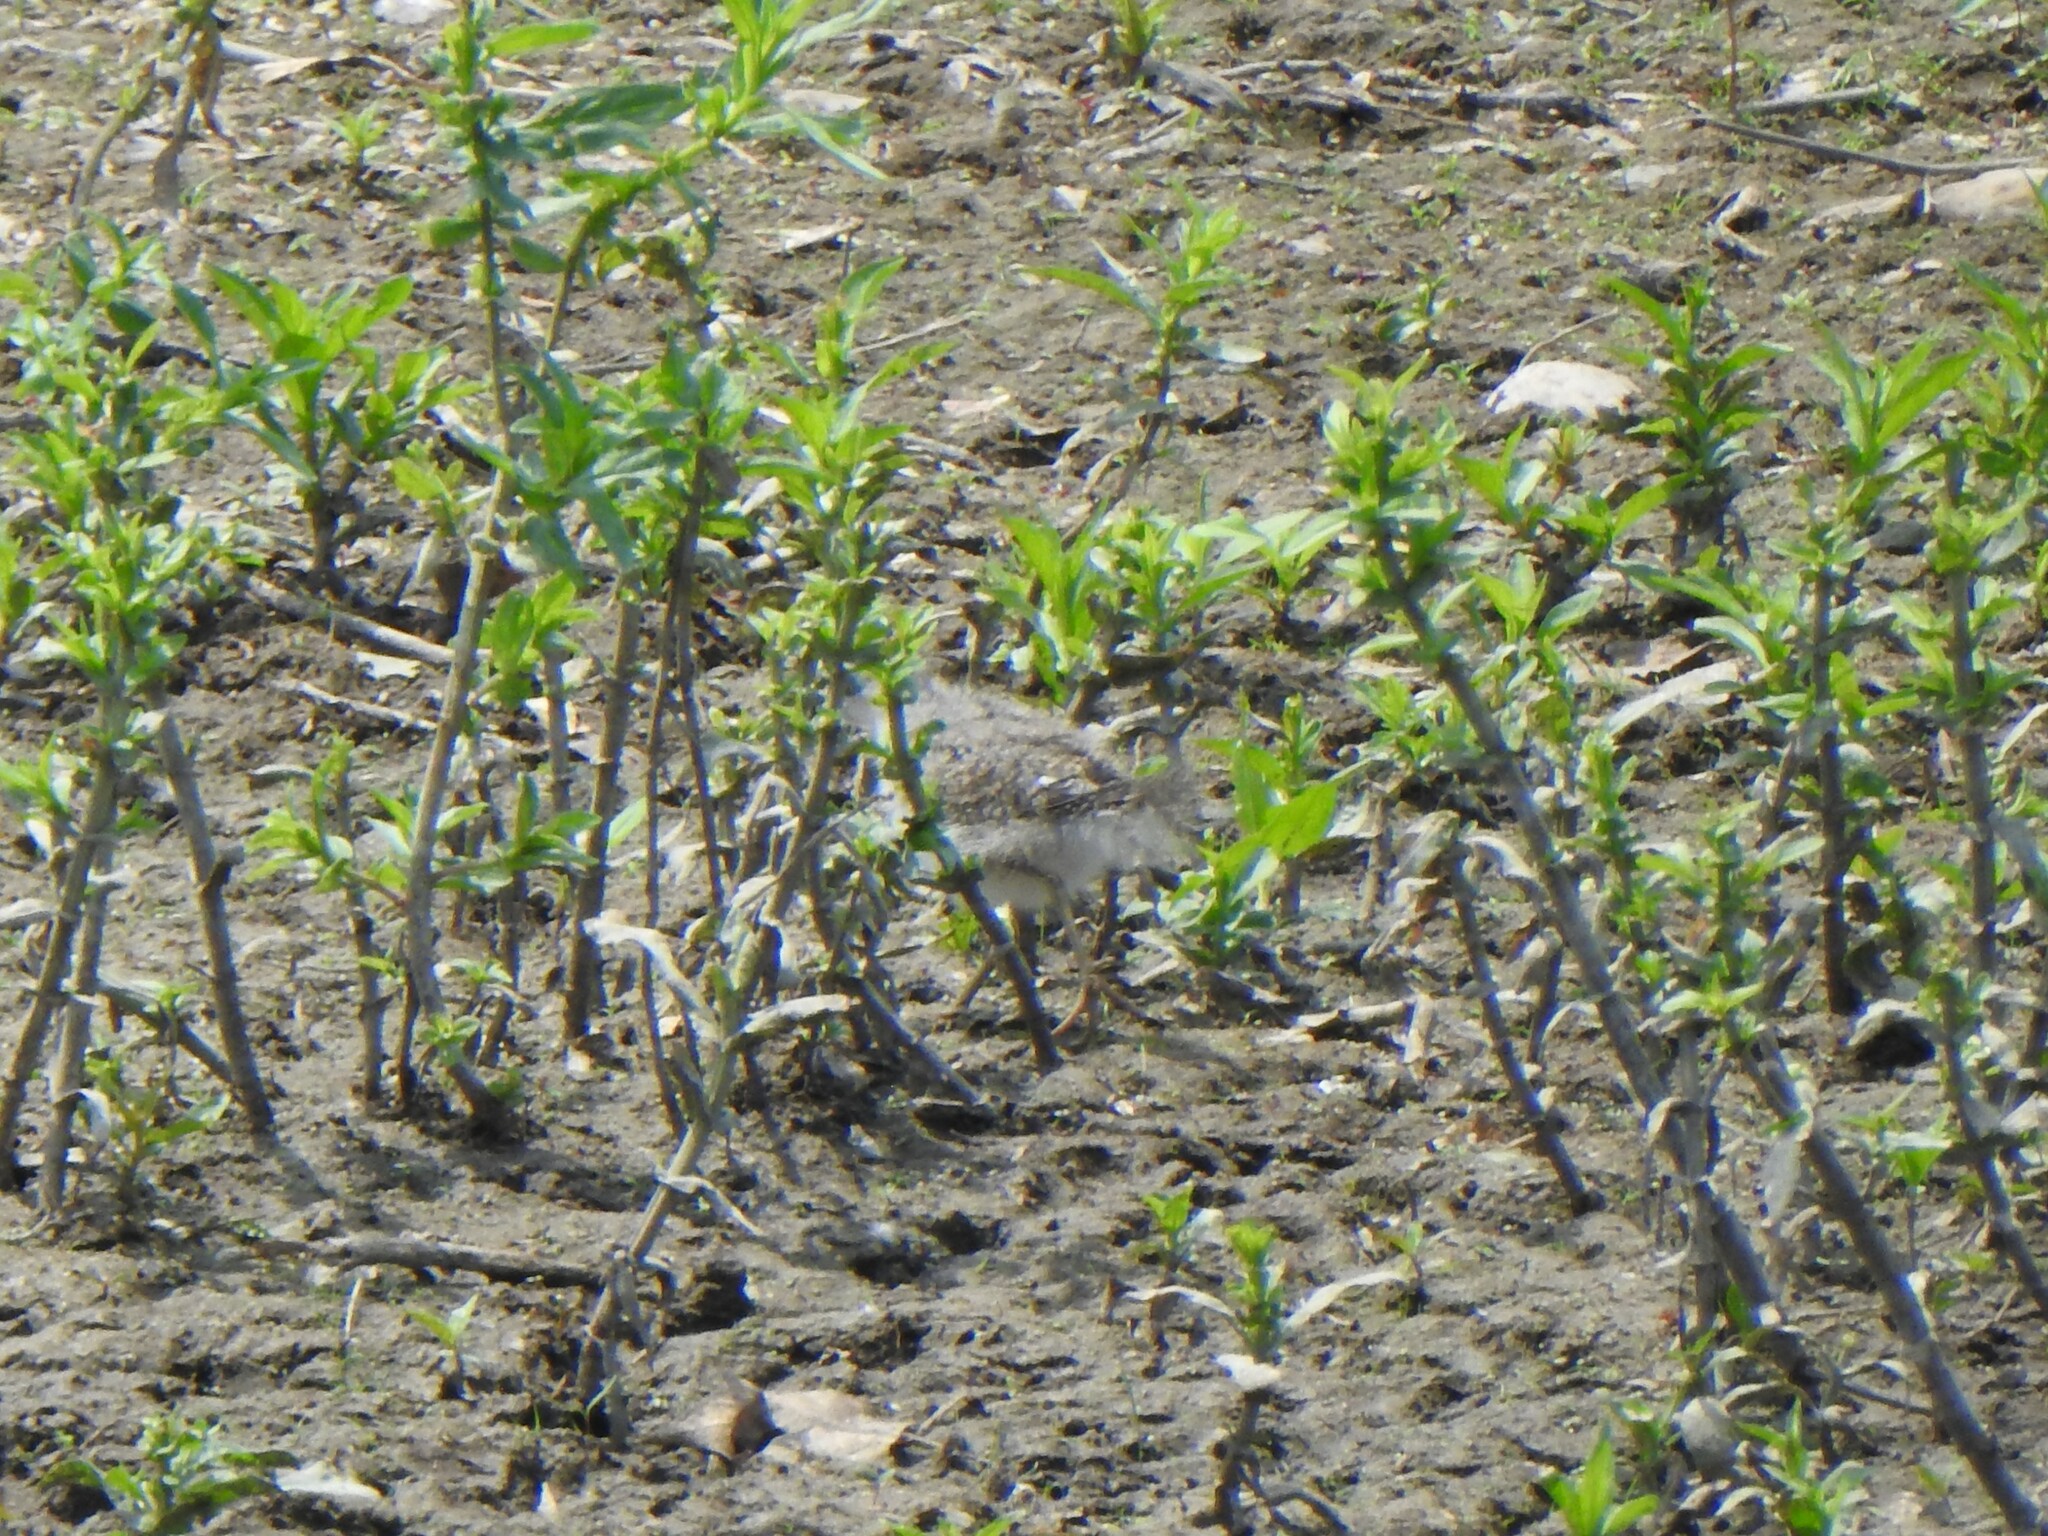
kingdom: Animalia
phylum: Chordata
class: Aves
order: Charadriiformes
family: Scolopacidae
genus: Actitis
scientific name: Actitis macularius
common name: Spotted sandpiper
